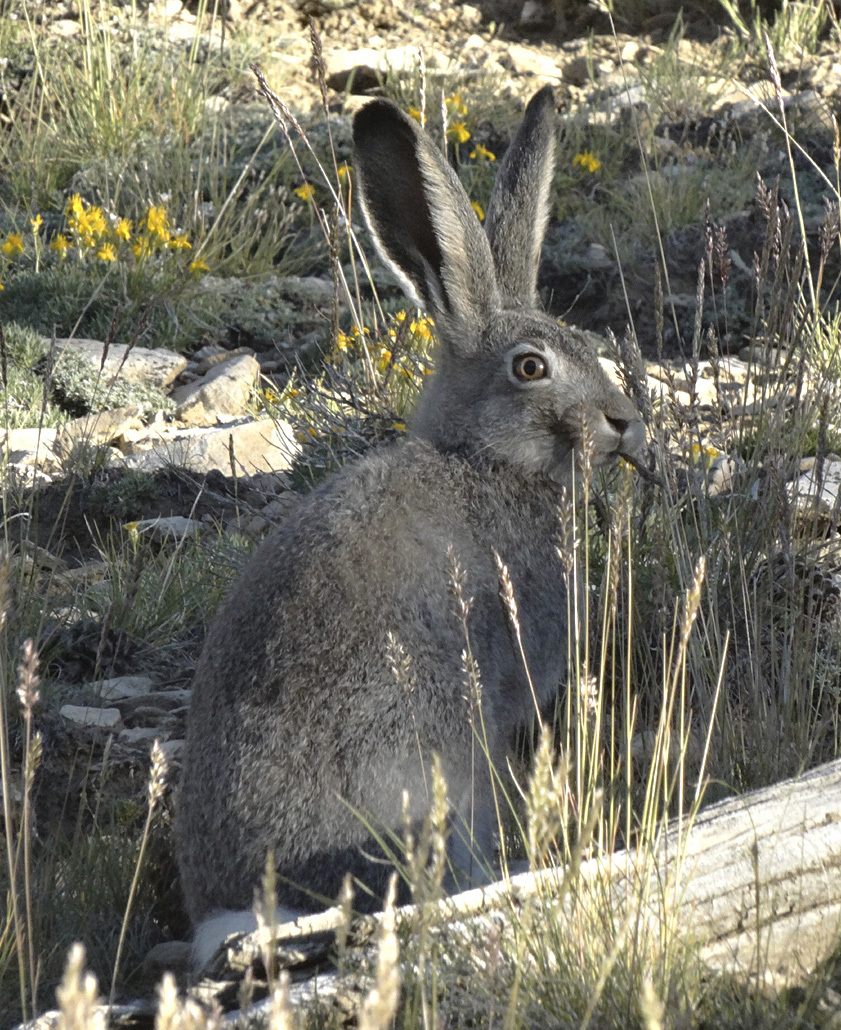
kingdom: Animalia
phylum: Chordata
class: Mammalia
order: Lagomorpha
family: Leporidae
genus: Lepus
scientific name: Lepus townsendii
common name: White-tailed jackrabbit
